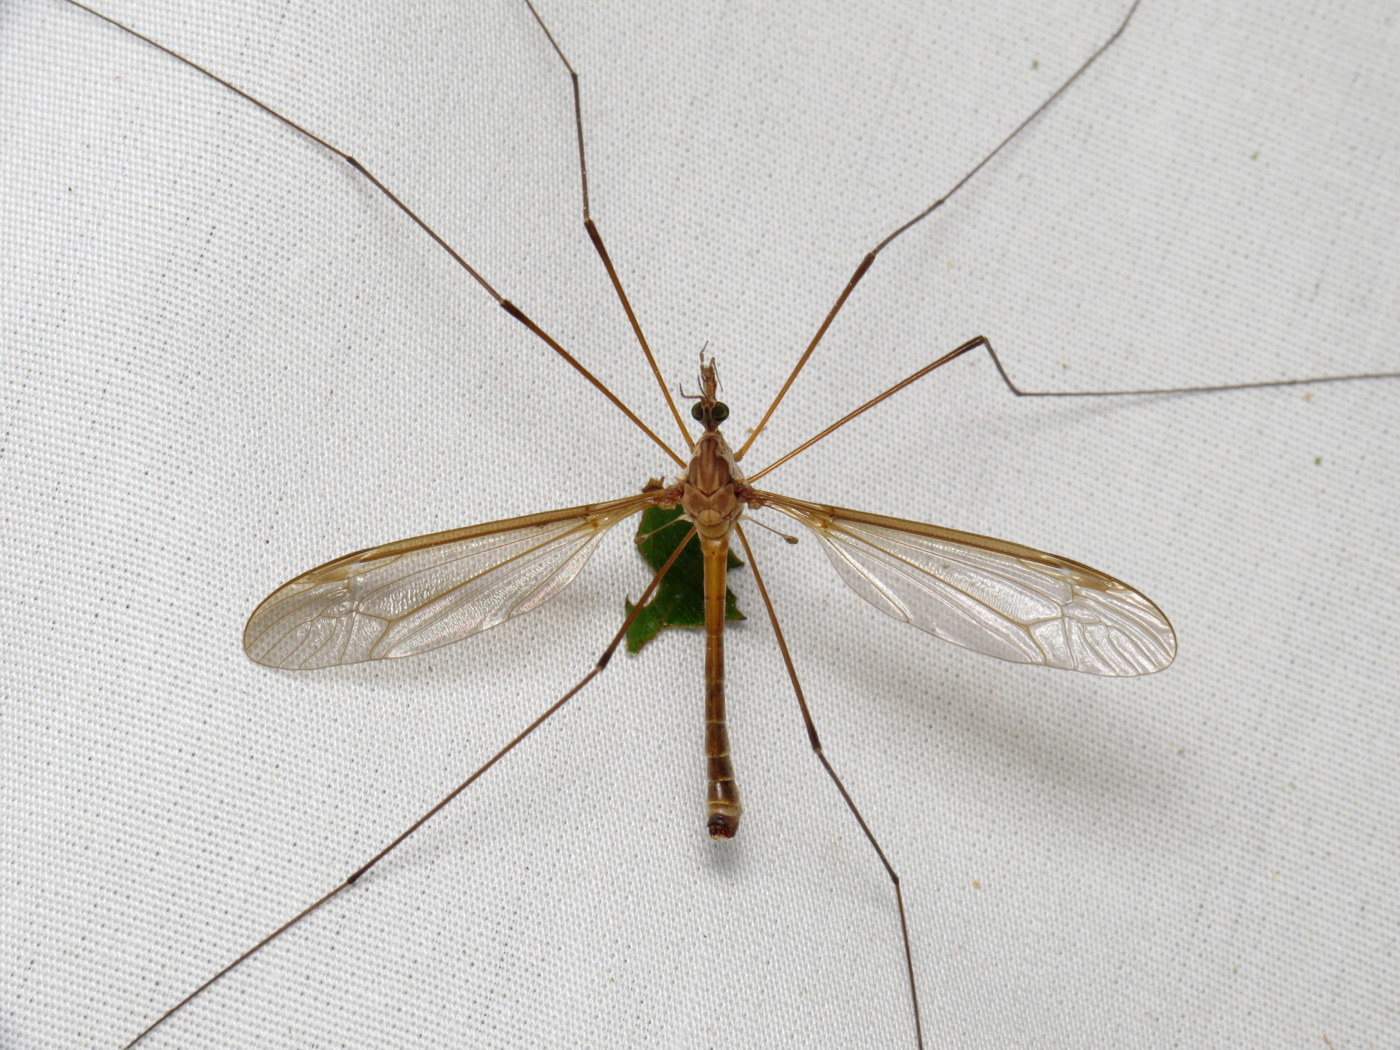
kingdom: Animalia
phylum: Arthropoda
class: Insecta
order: Diptera
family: Tipulidae
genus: Tipula
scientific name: Tipula jacobus
